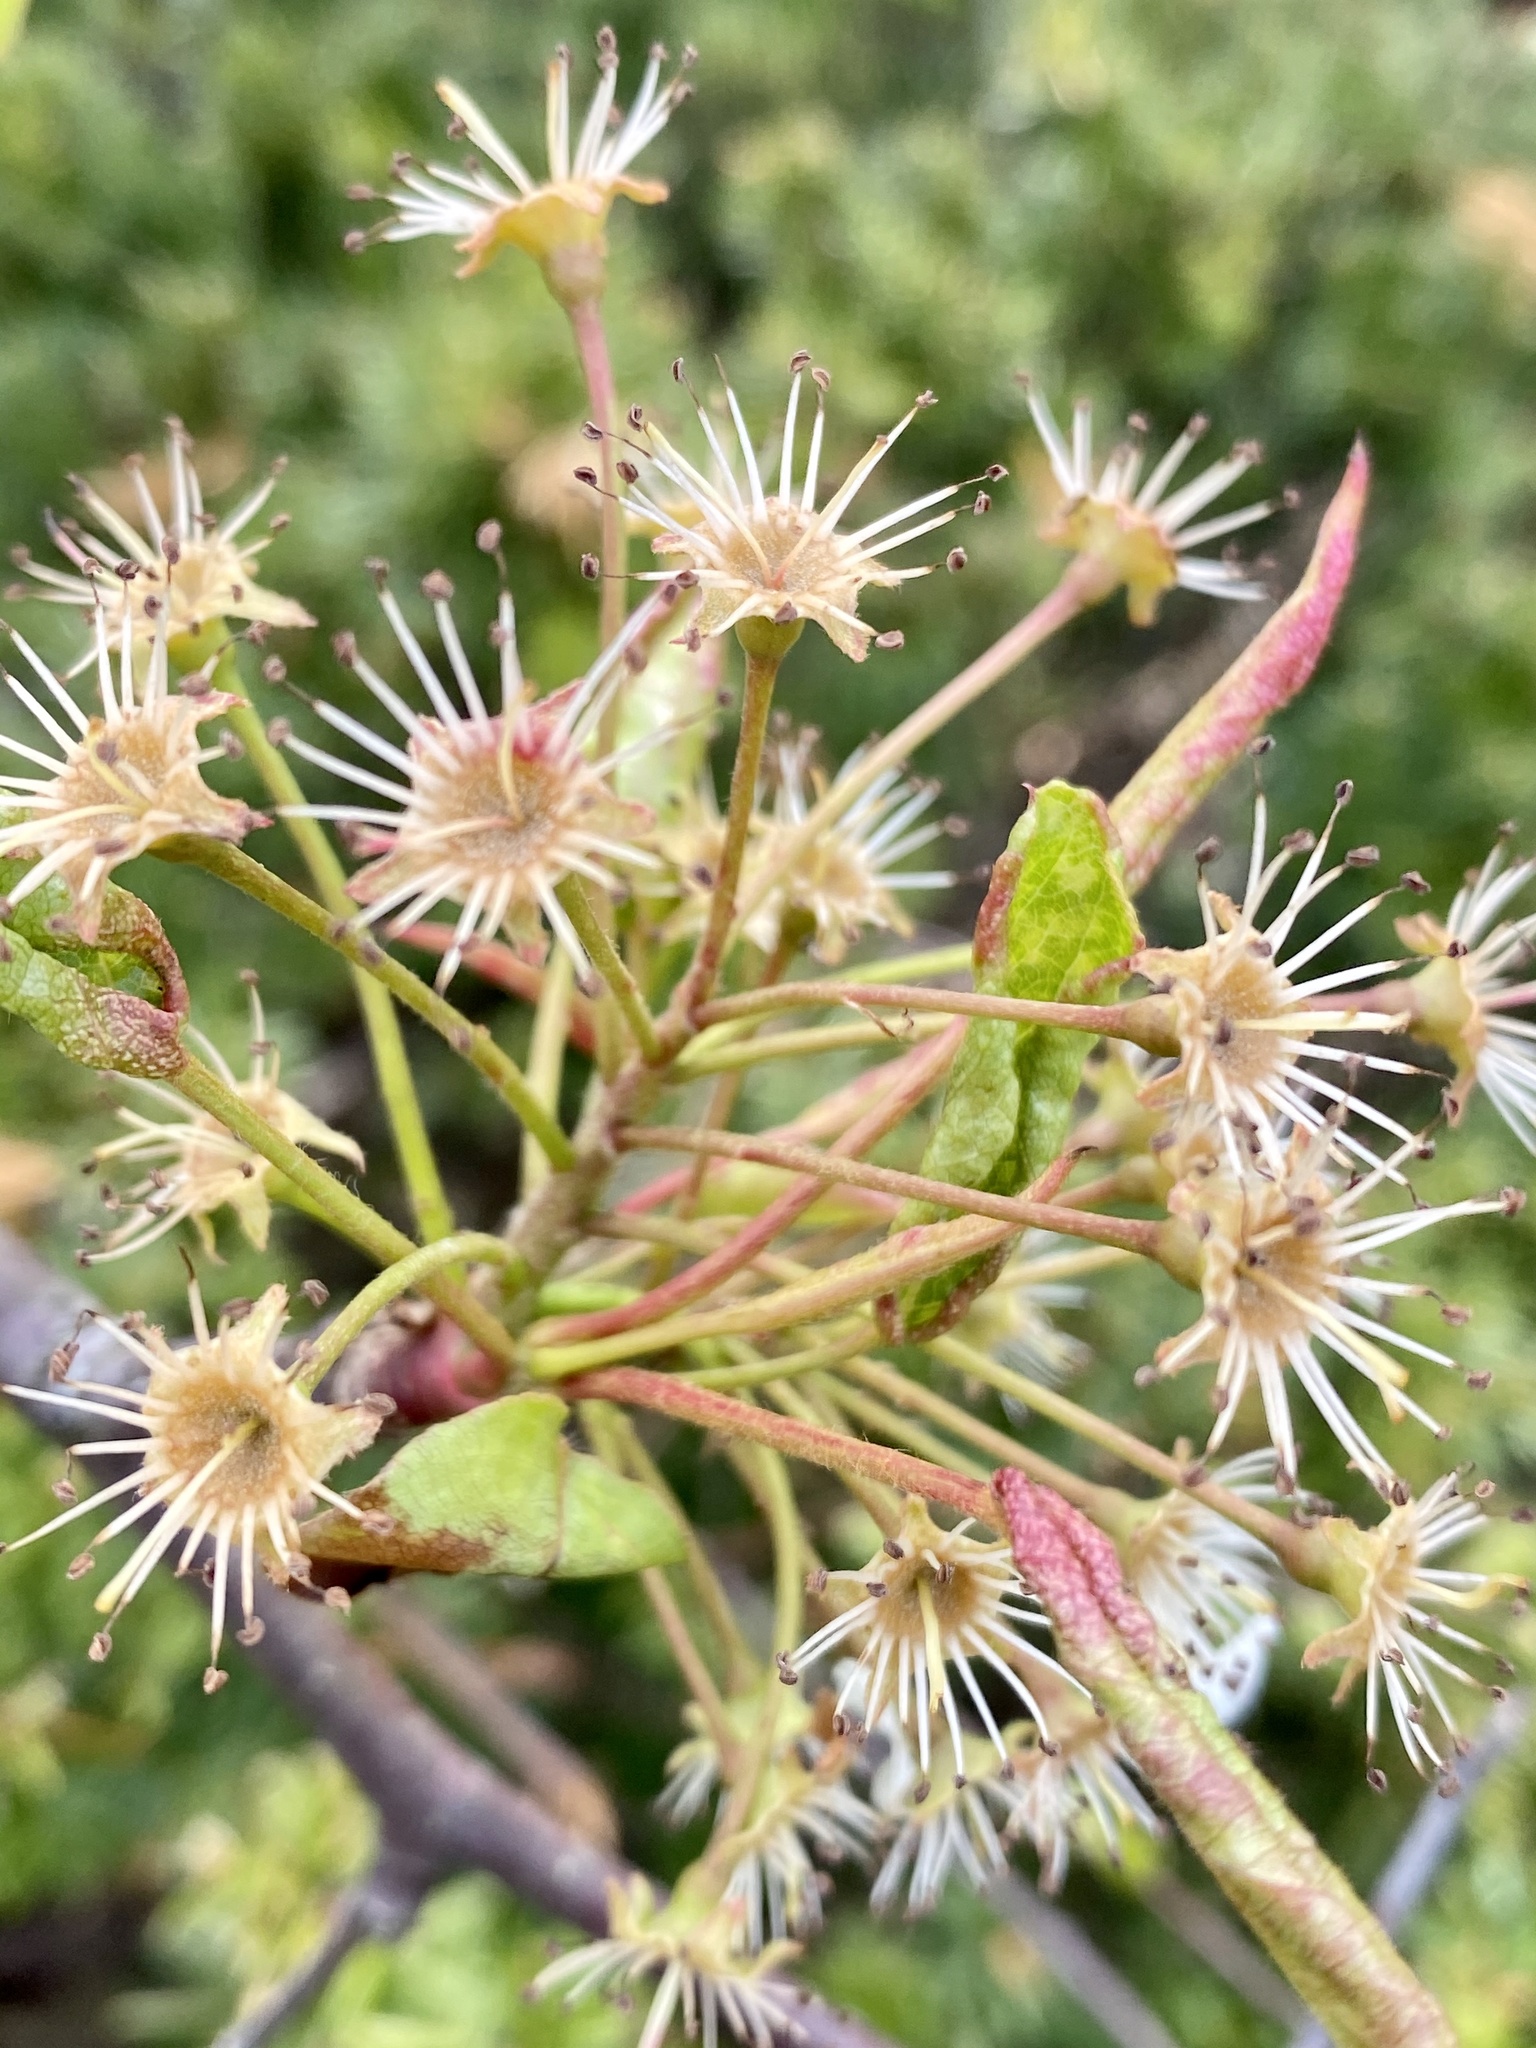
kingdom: Plantae
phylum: Tracheophyta
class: Magnoliopsida
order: Rosales
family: Rosaceae
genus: Pyrus
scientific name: Pyrus calleryana
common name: Callery pear
